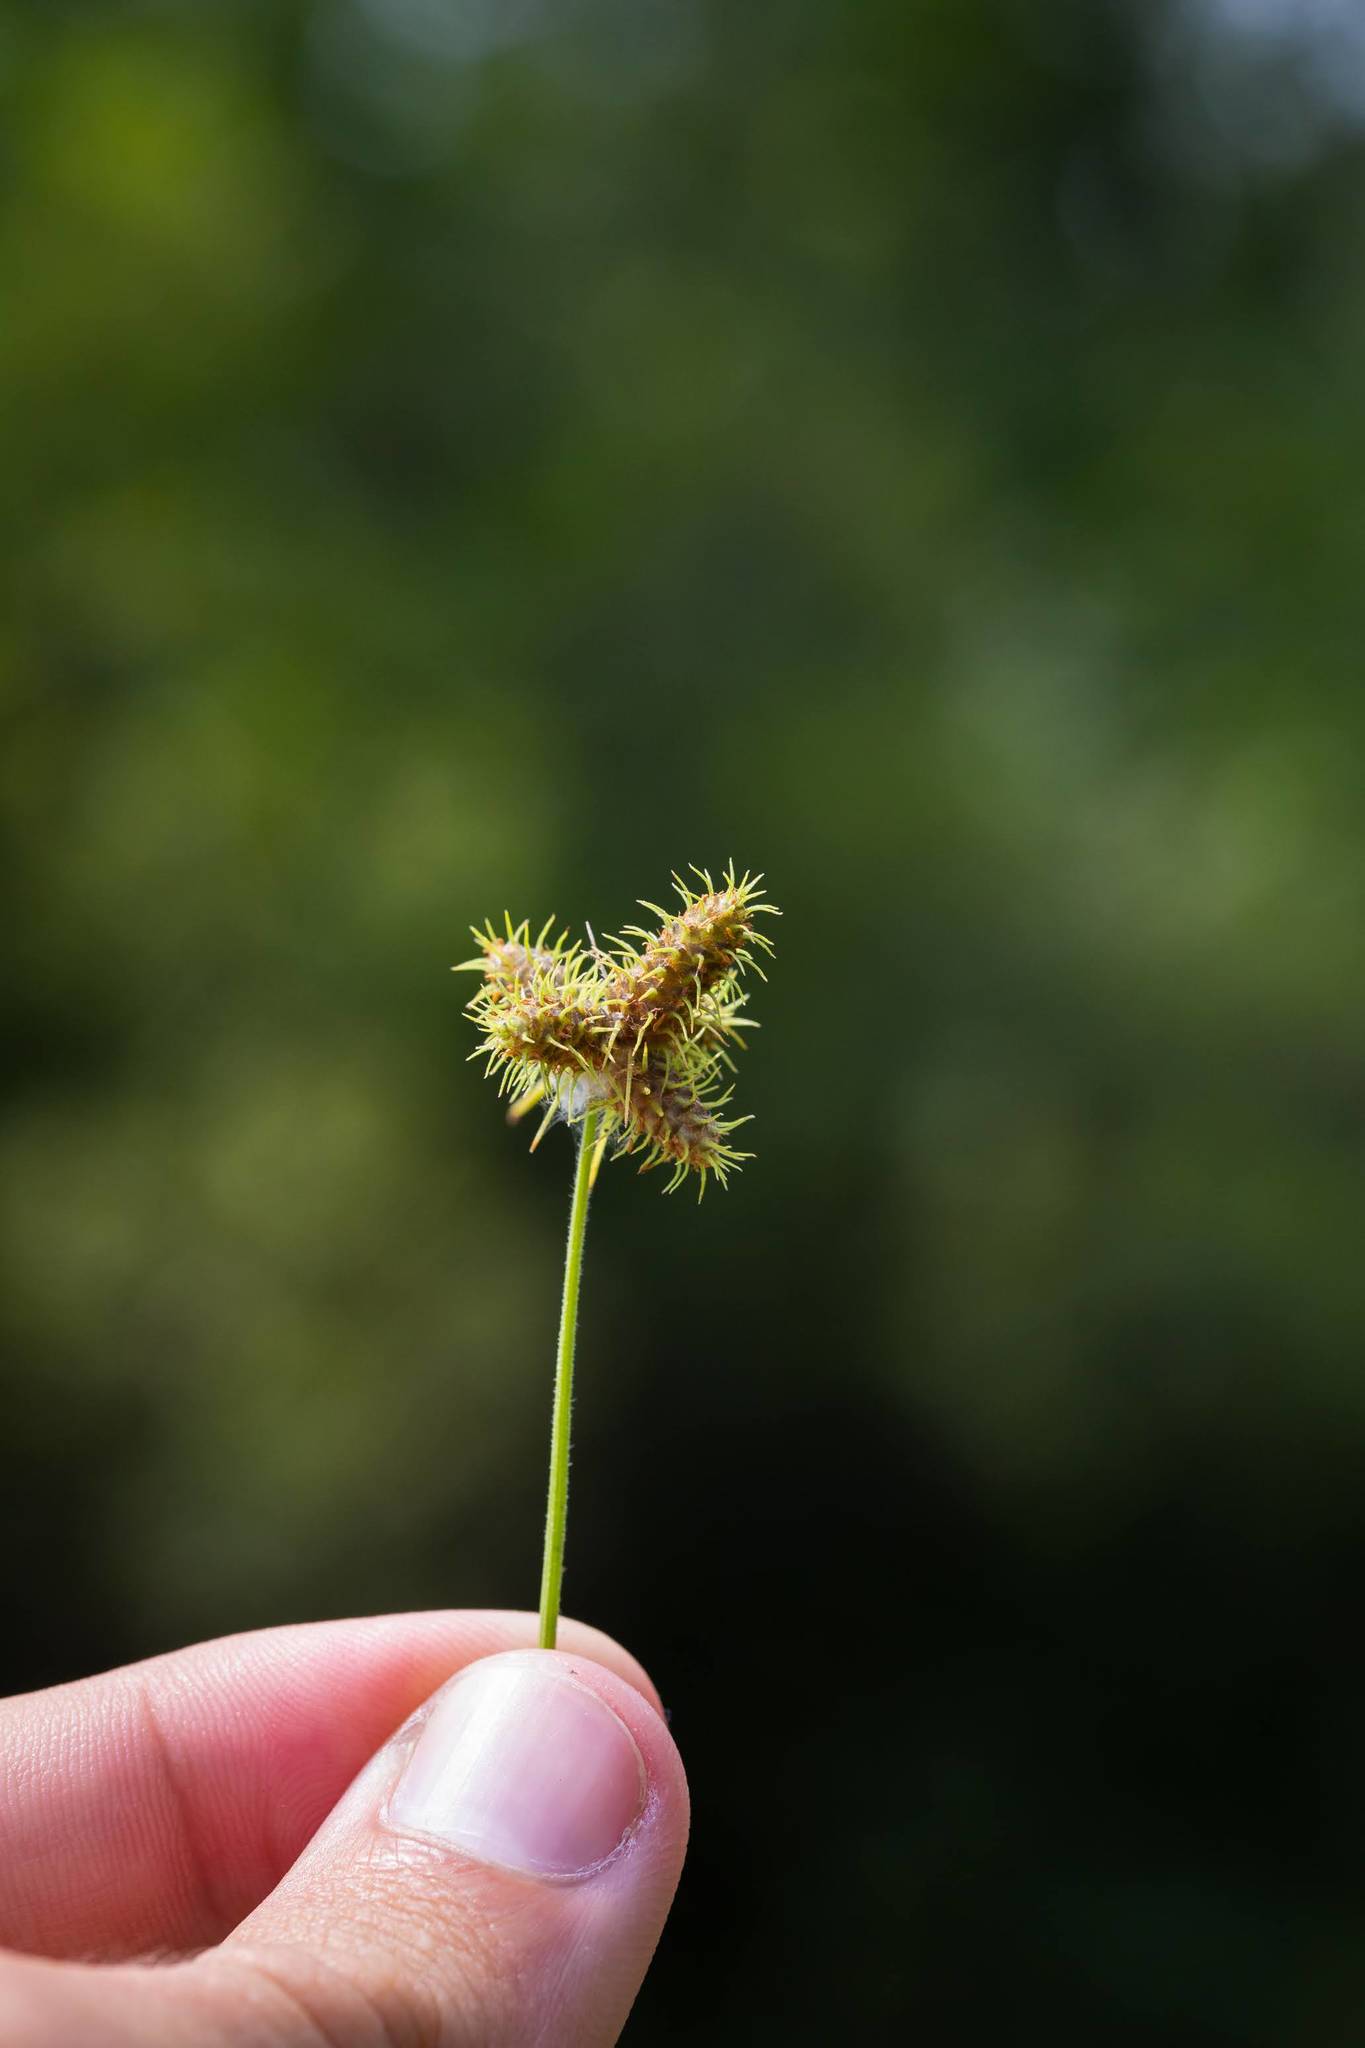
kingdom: Plantae
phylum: Tracheophyta
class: Liliopsida
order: Poales
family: Cyperaceae
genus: Fuirena
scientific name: Fuirena simplex
